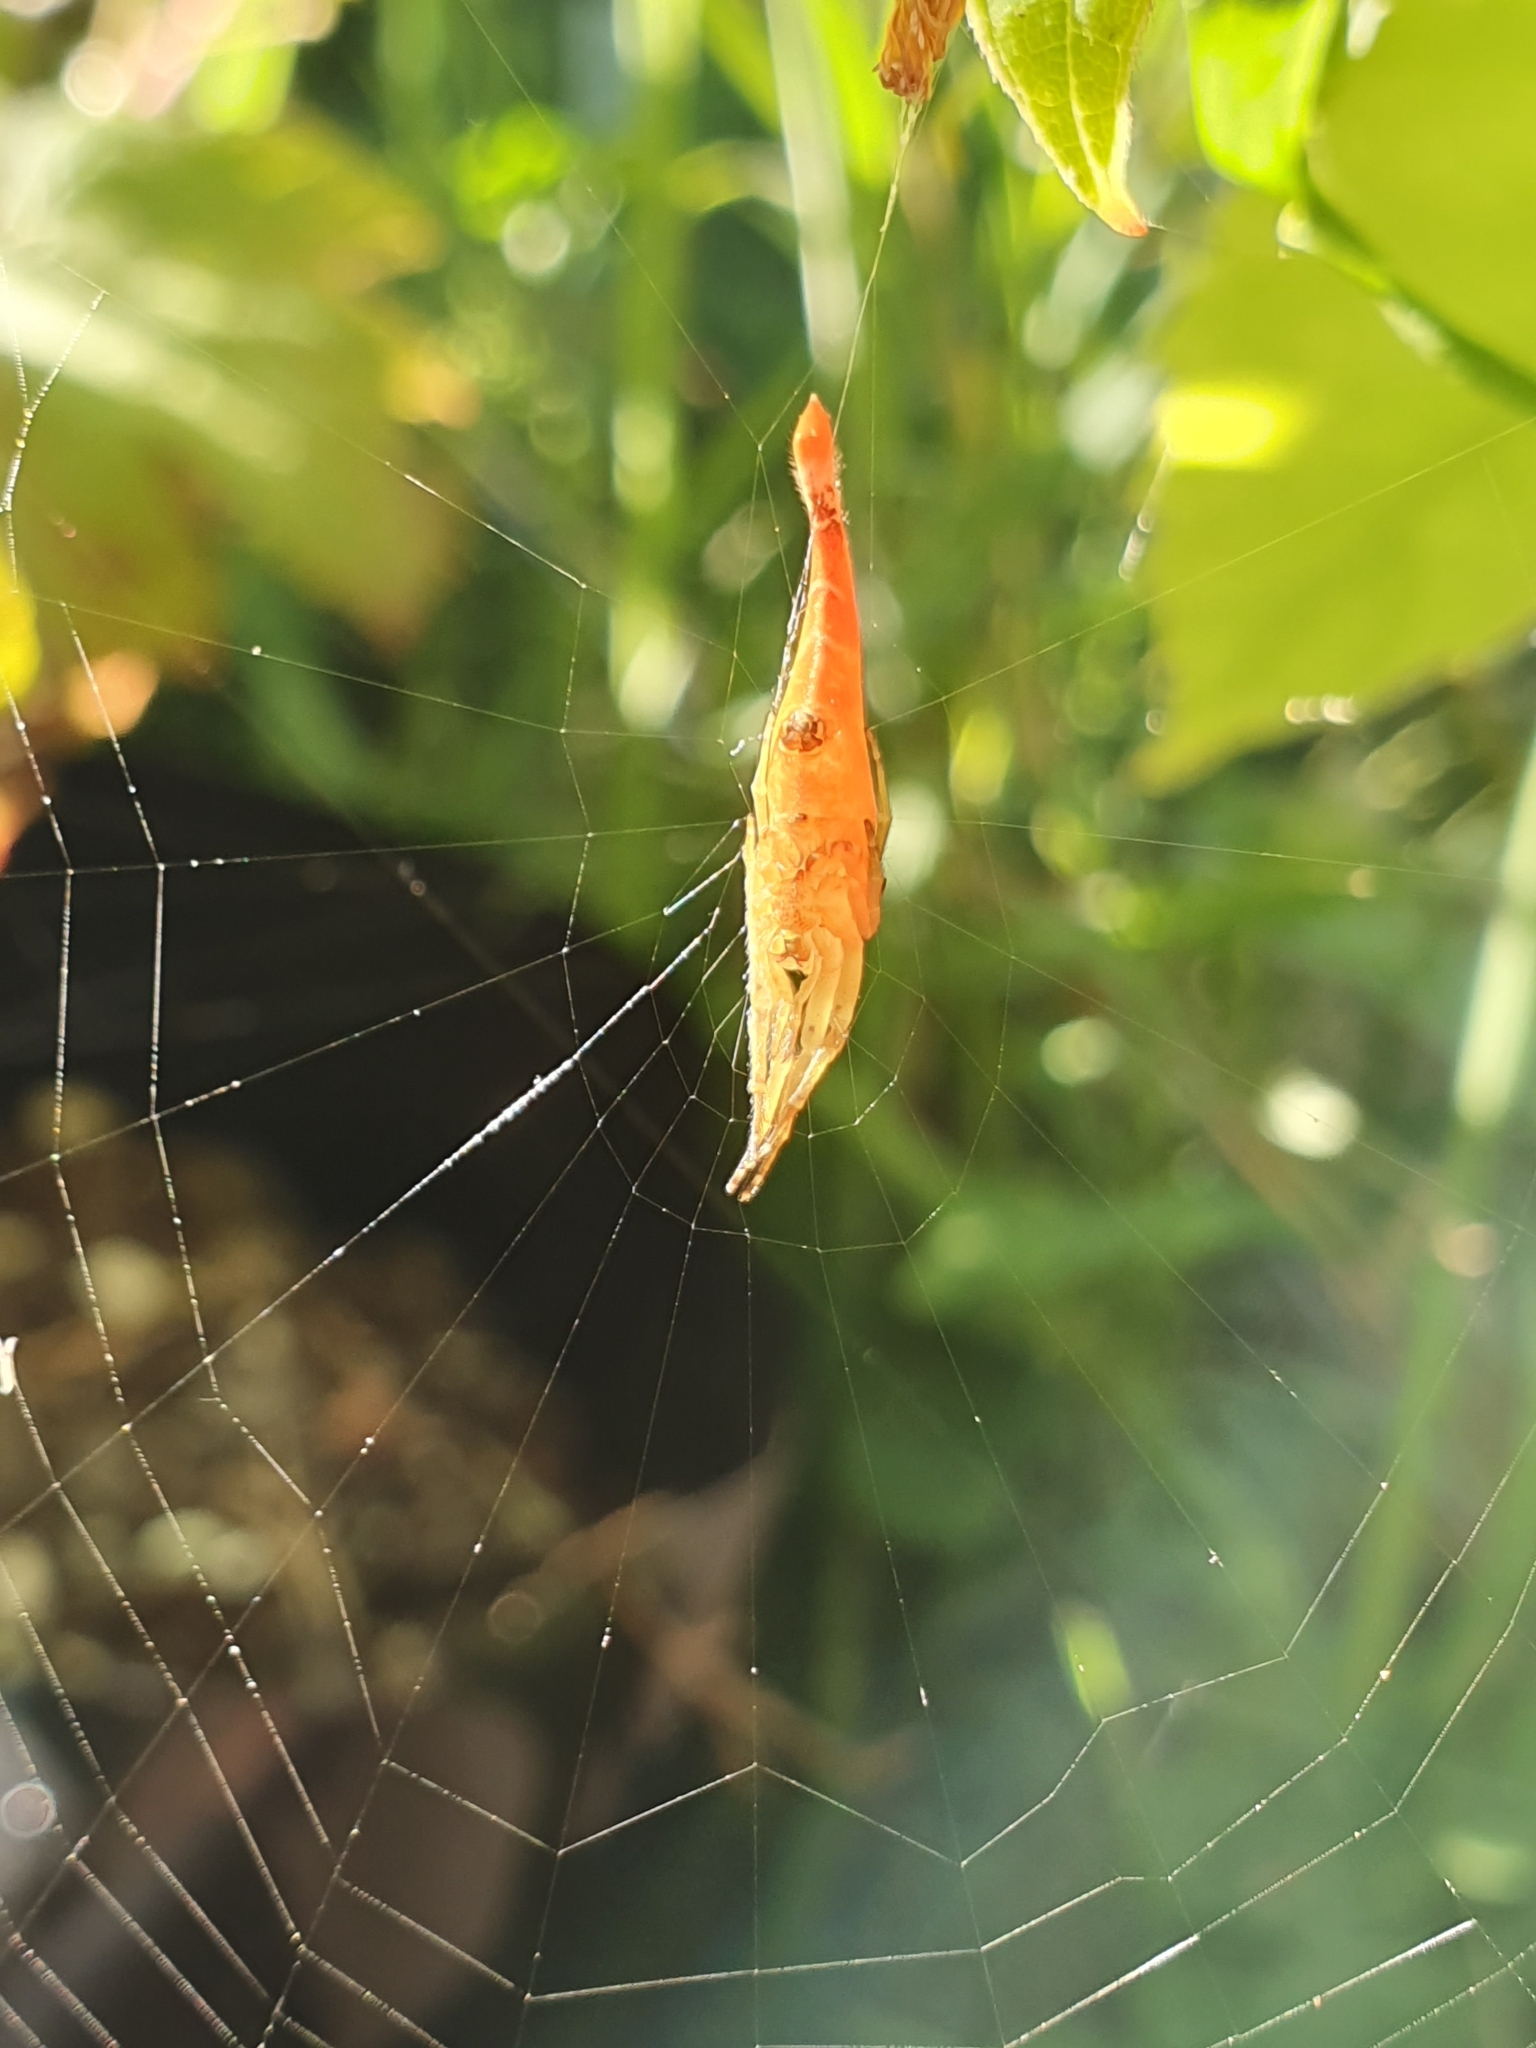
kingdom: Animalia
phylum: Arthropoda
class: Arachnida
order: Araneae
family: Araneidae
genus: Arachnura
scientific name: Arachnura feredayi
